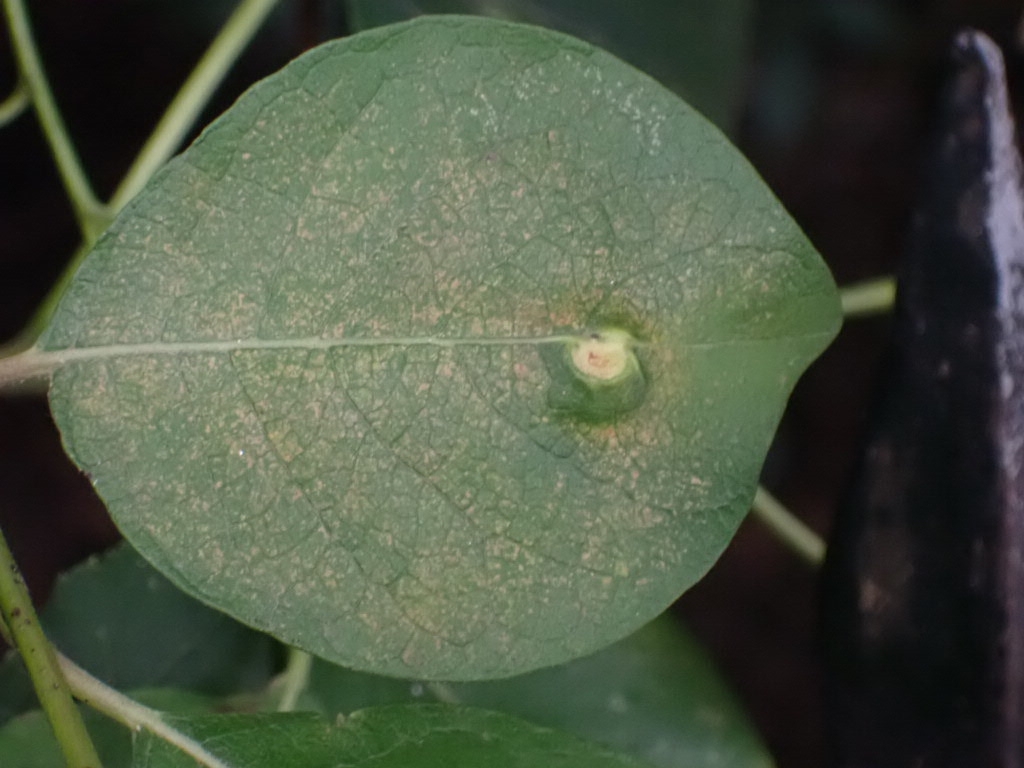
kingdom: Animalia
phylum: Arthropoda
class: Insecta
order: Hymenoptera
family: Tenthredinidae
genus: Pontania
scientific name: Pontania pedunculi
